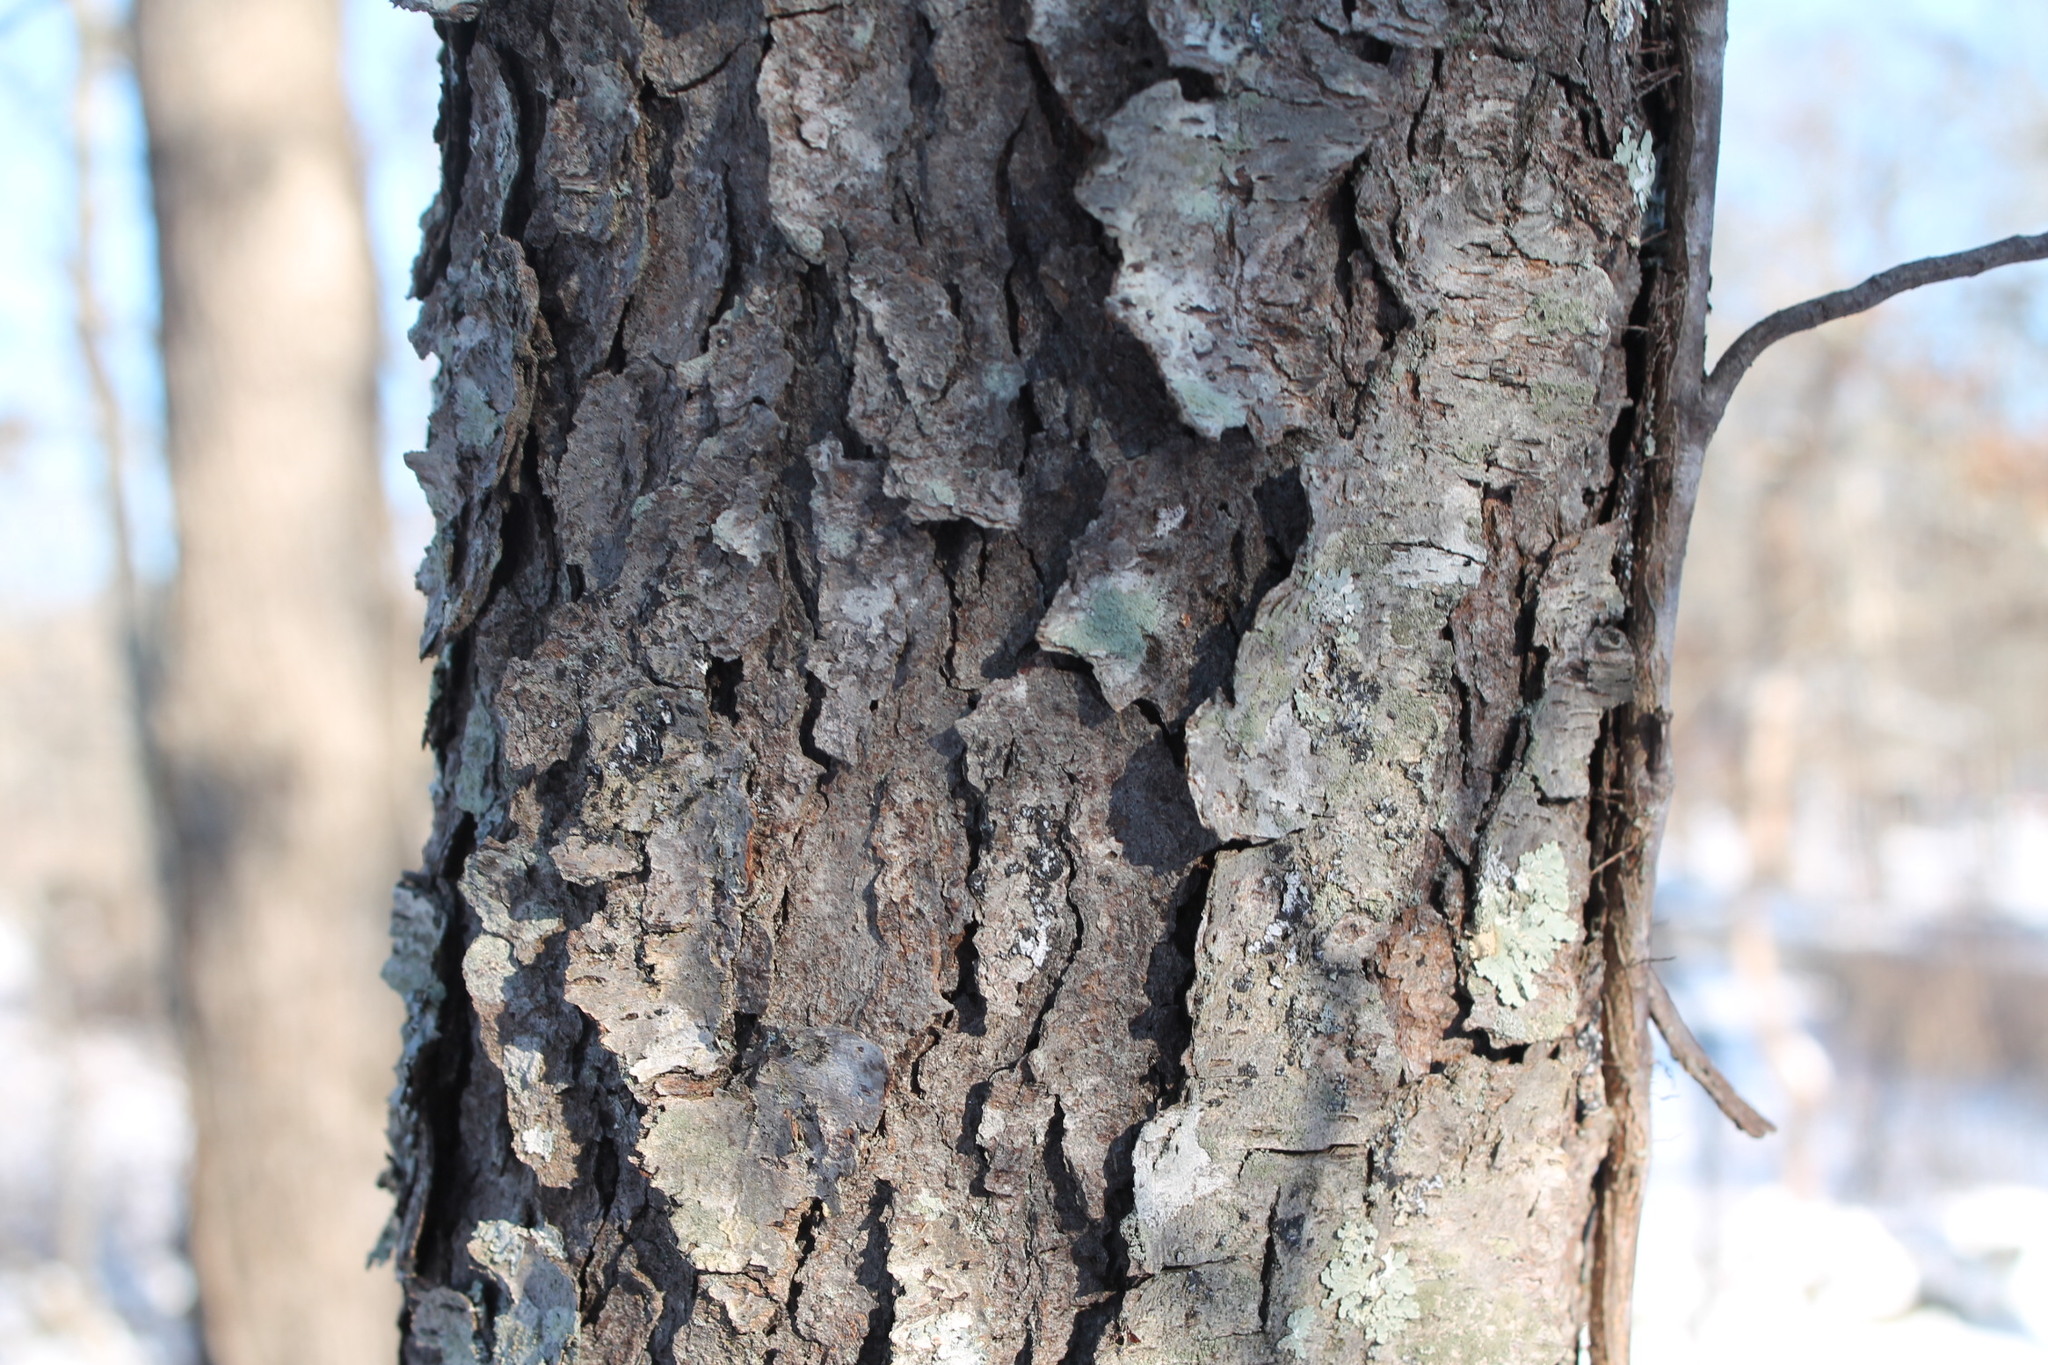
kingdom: Plantae
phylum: Tracheophyta
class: Magnoliopsida
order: Rosales
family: Rosaceae
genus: Prunus
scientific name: Prunus serotina
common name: Black cherry
